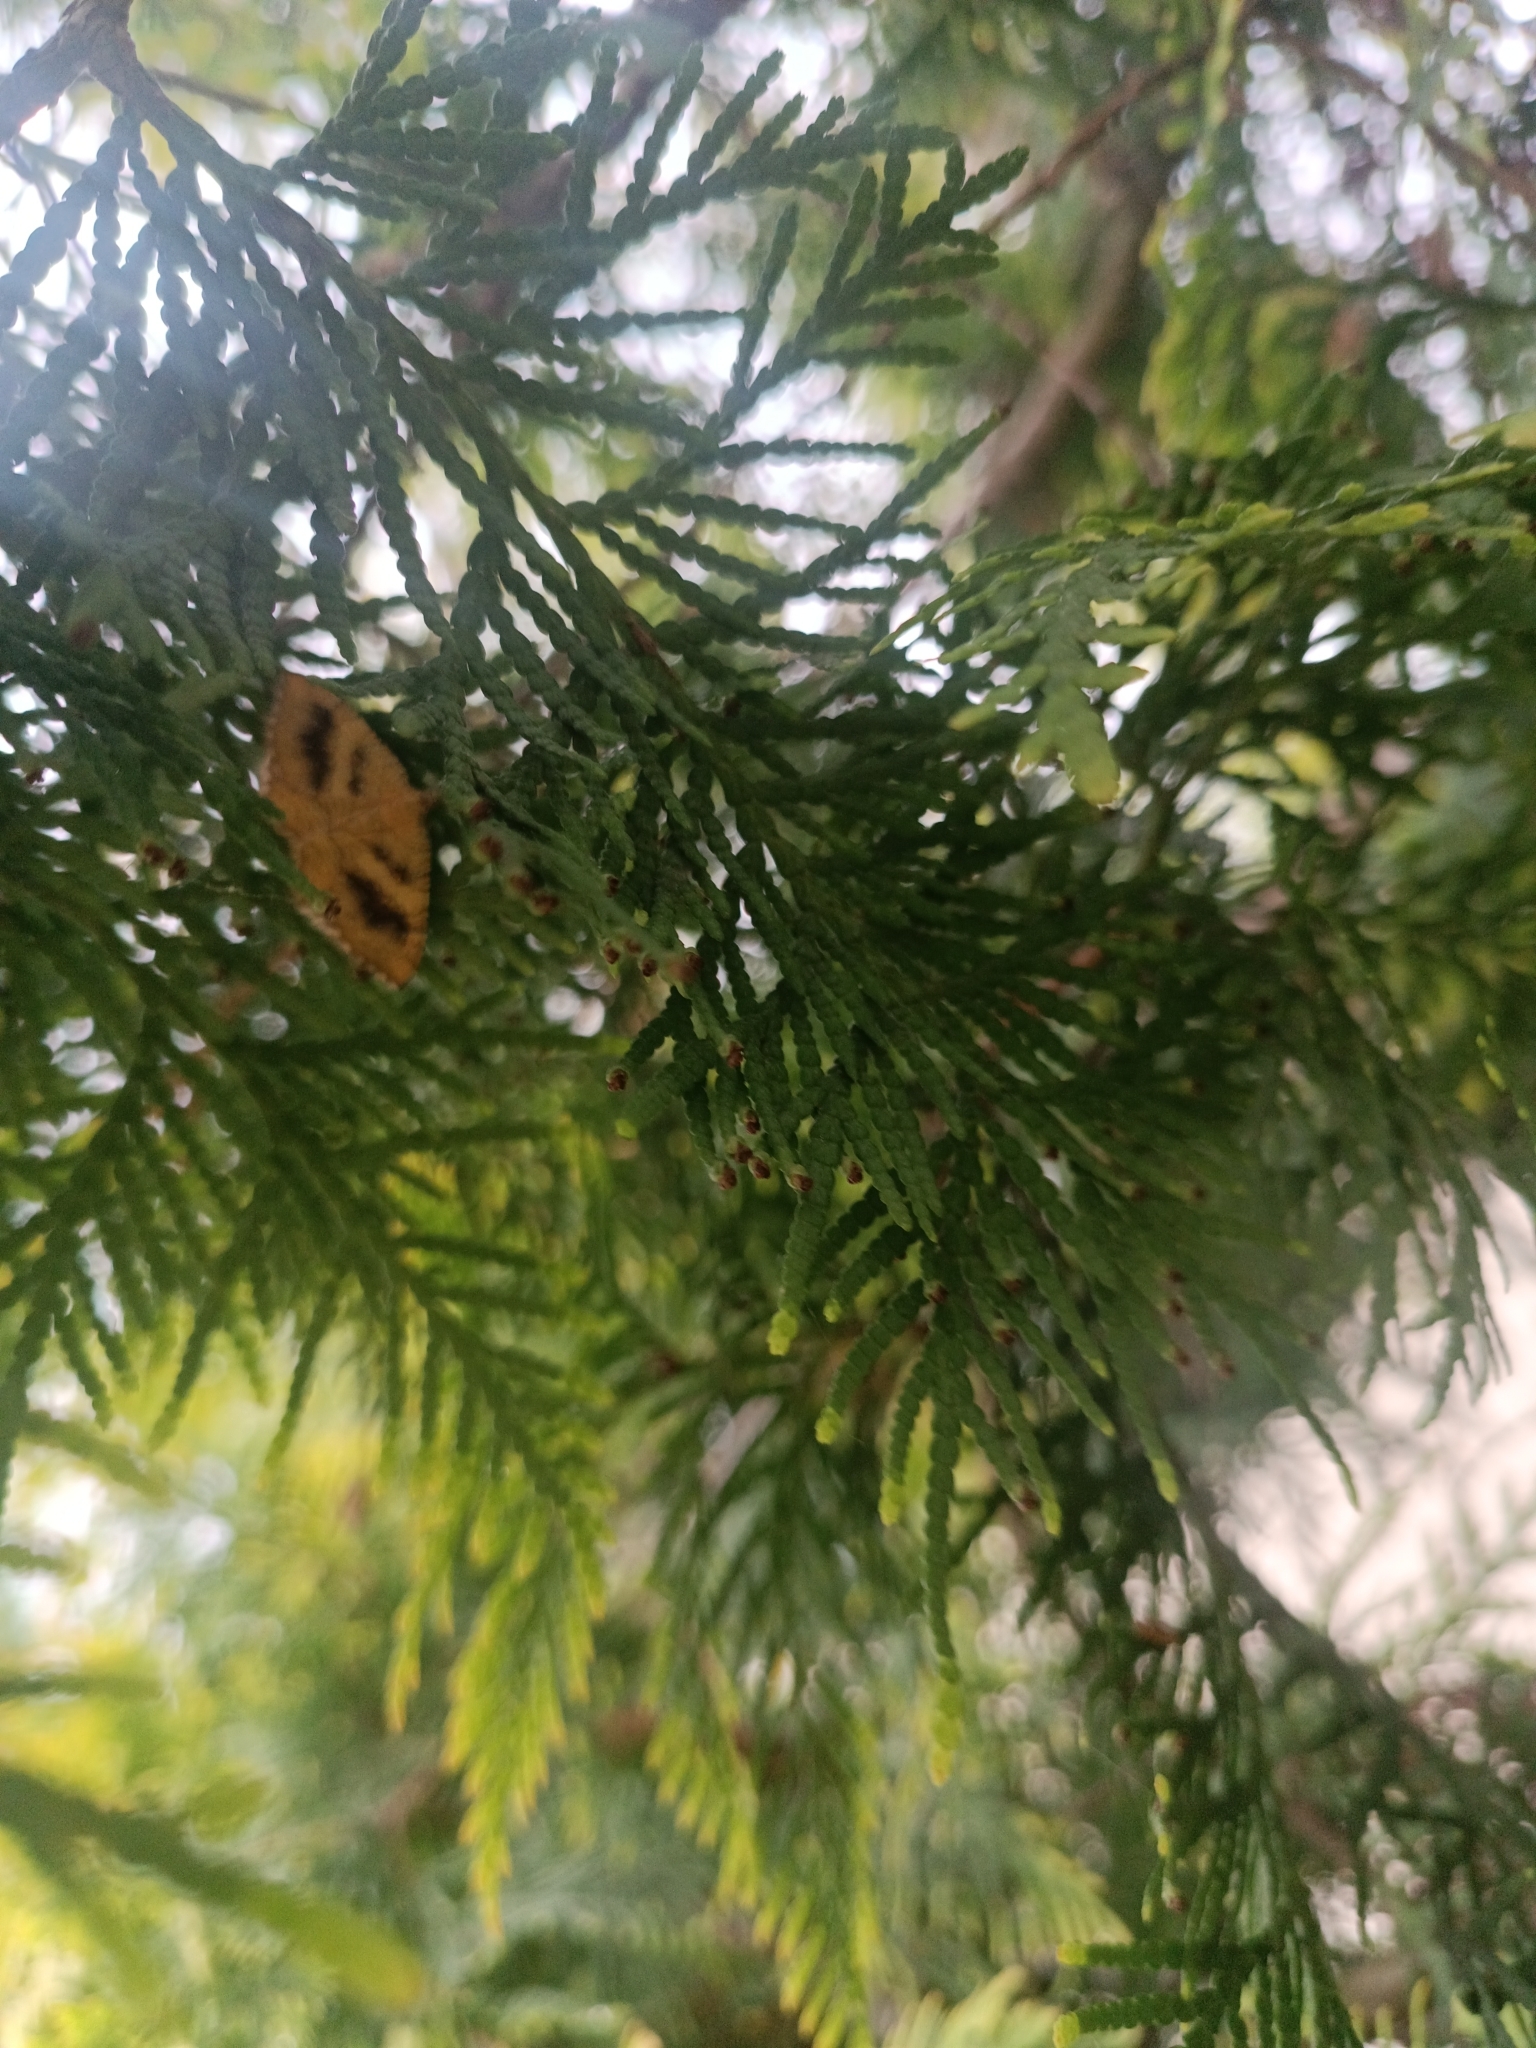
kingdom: Animalia
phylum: Arthropoda
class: Insecta
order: Lepidoptera
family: Geometridae
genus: Camptogramma
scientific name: Camptogramma bilineata
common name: Yellow shell
